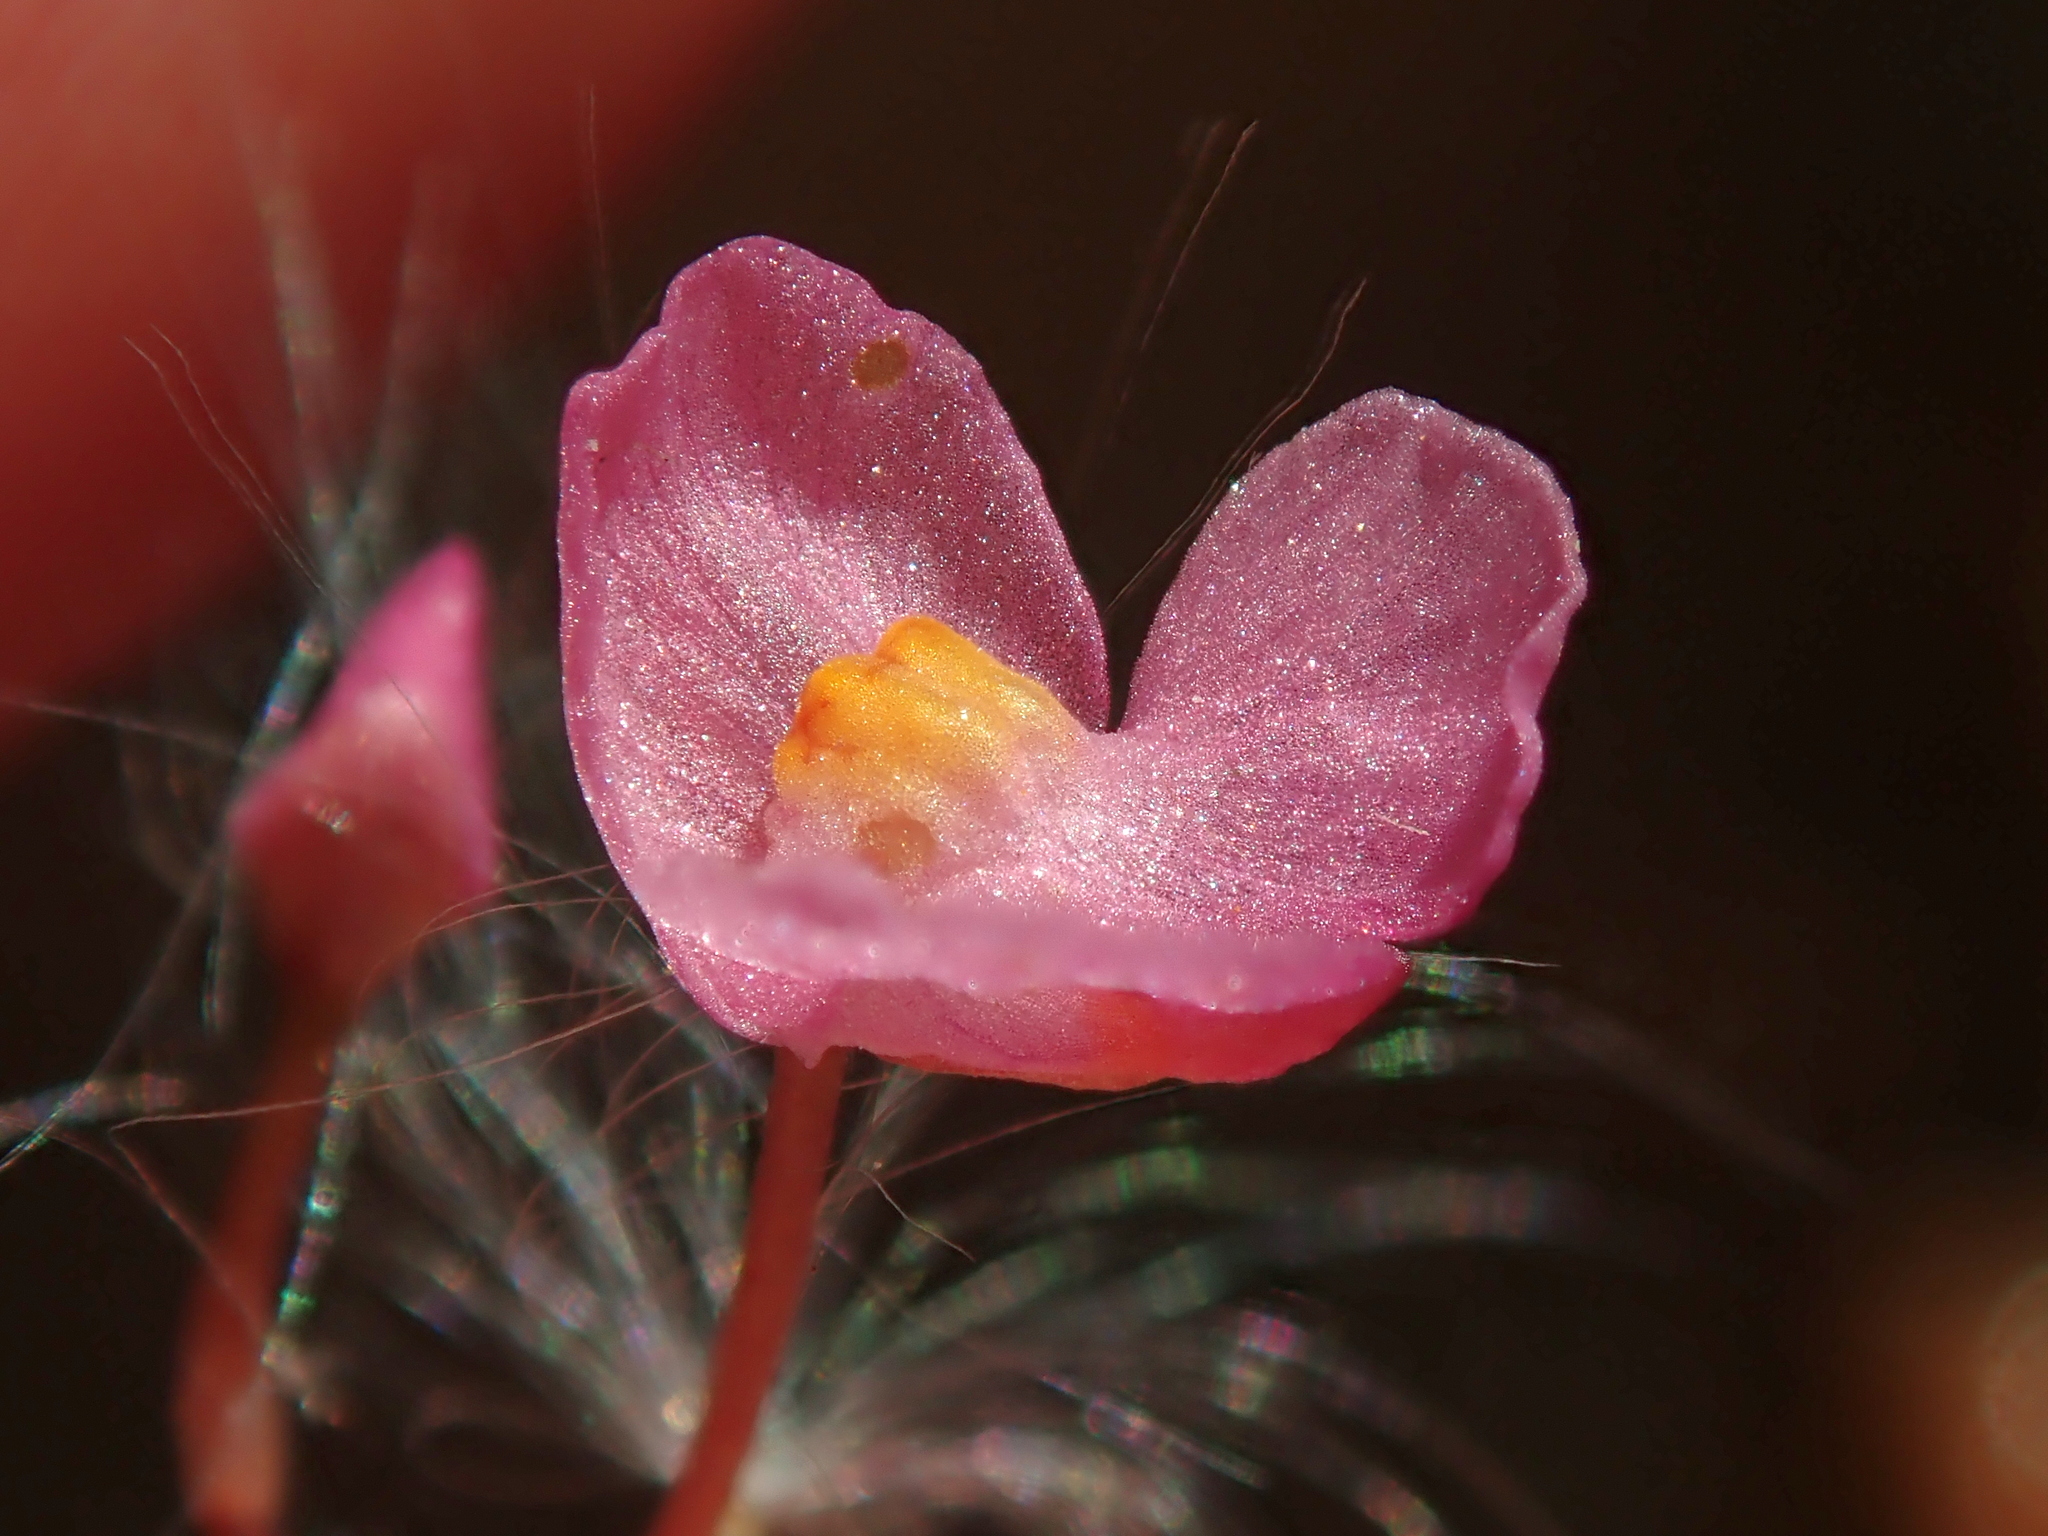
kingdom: Plantae
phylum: Tracheophyta
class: Magnoliopsida
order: Lamiales
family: Lentibulariaceae
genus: Utricularia
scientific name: Utricularia hydrocarpa
